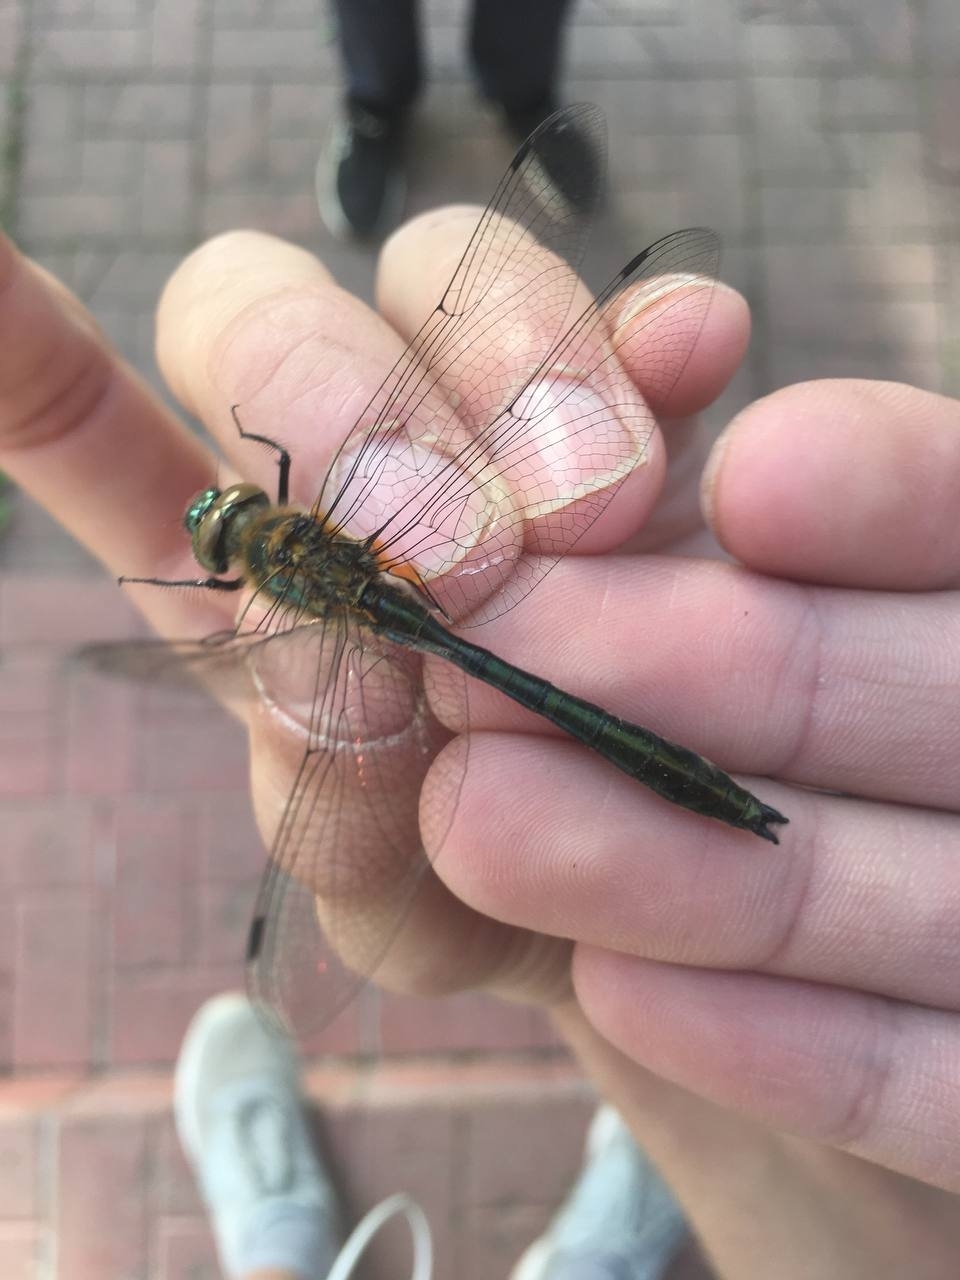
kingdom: Animalia
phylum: Arthropoda
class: Insecta
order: Odonata
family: Corduliidae
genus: Cordulia
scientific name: Cordulia aenea
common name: Downy emerald
